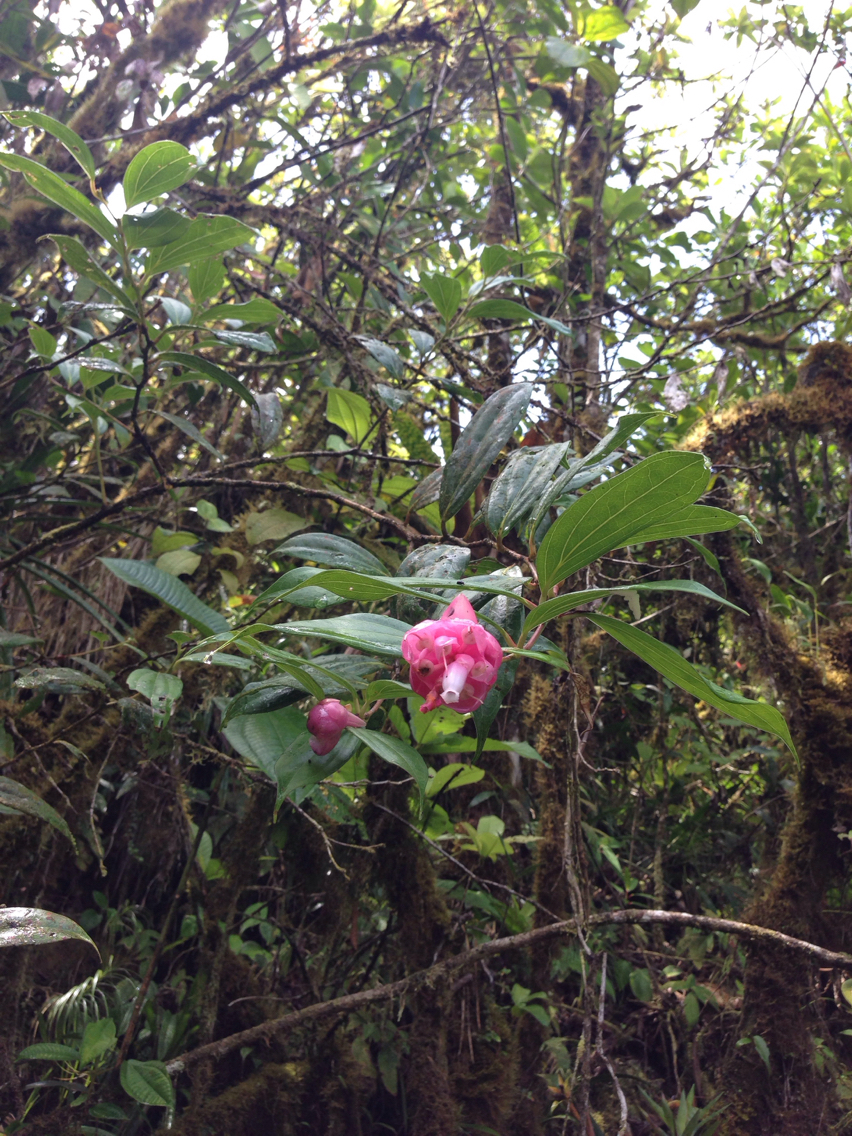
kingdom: Plantae
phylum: Tracheophyta
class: Magnoliopsida
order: Ericales
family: Ericaceae
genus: Cavendishia
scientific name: Cavendishia
